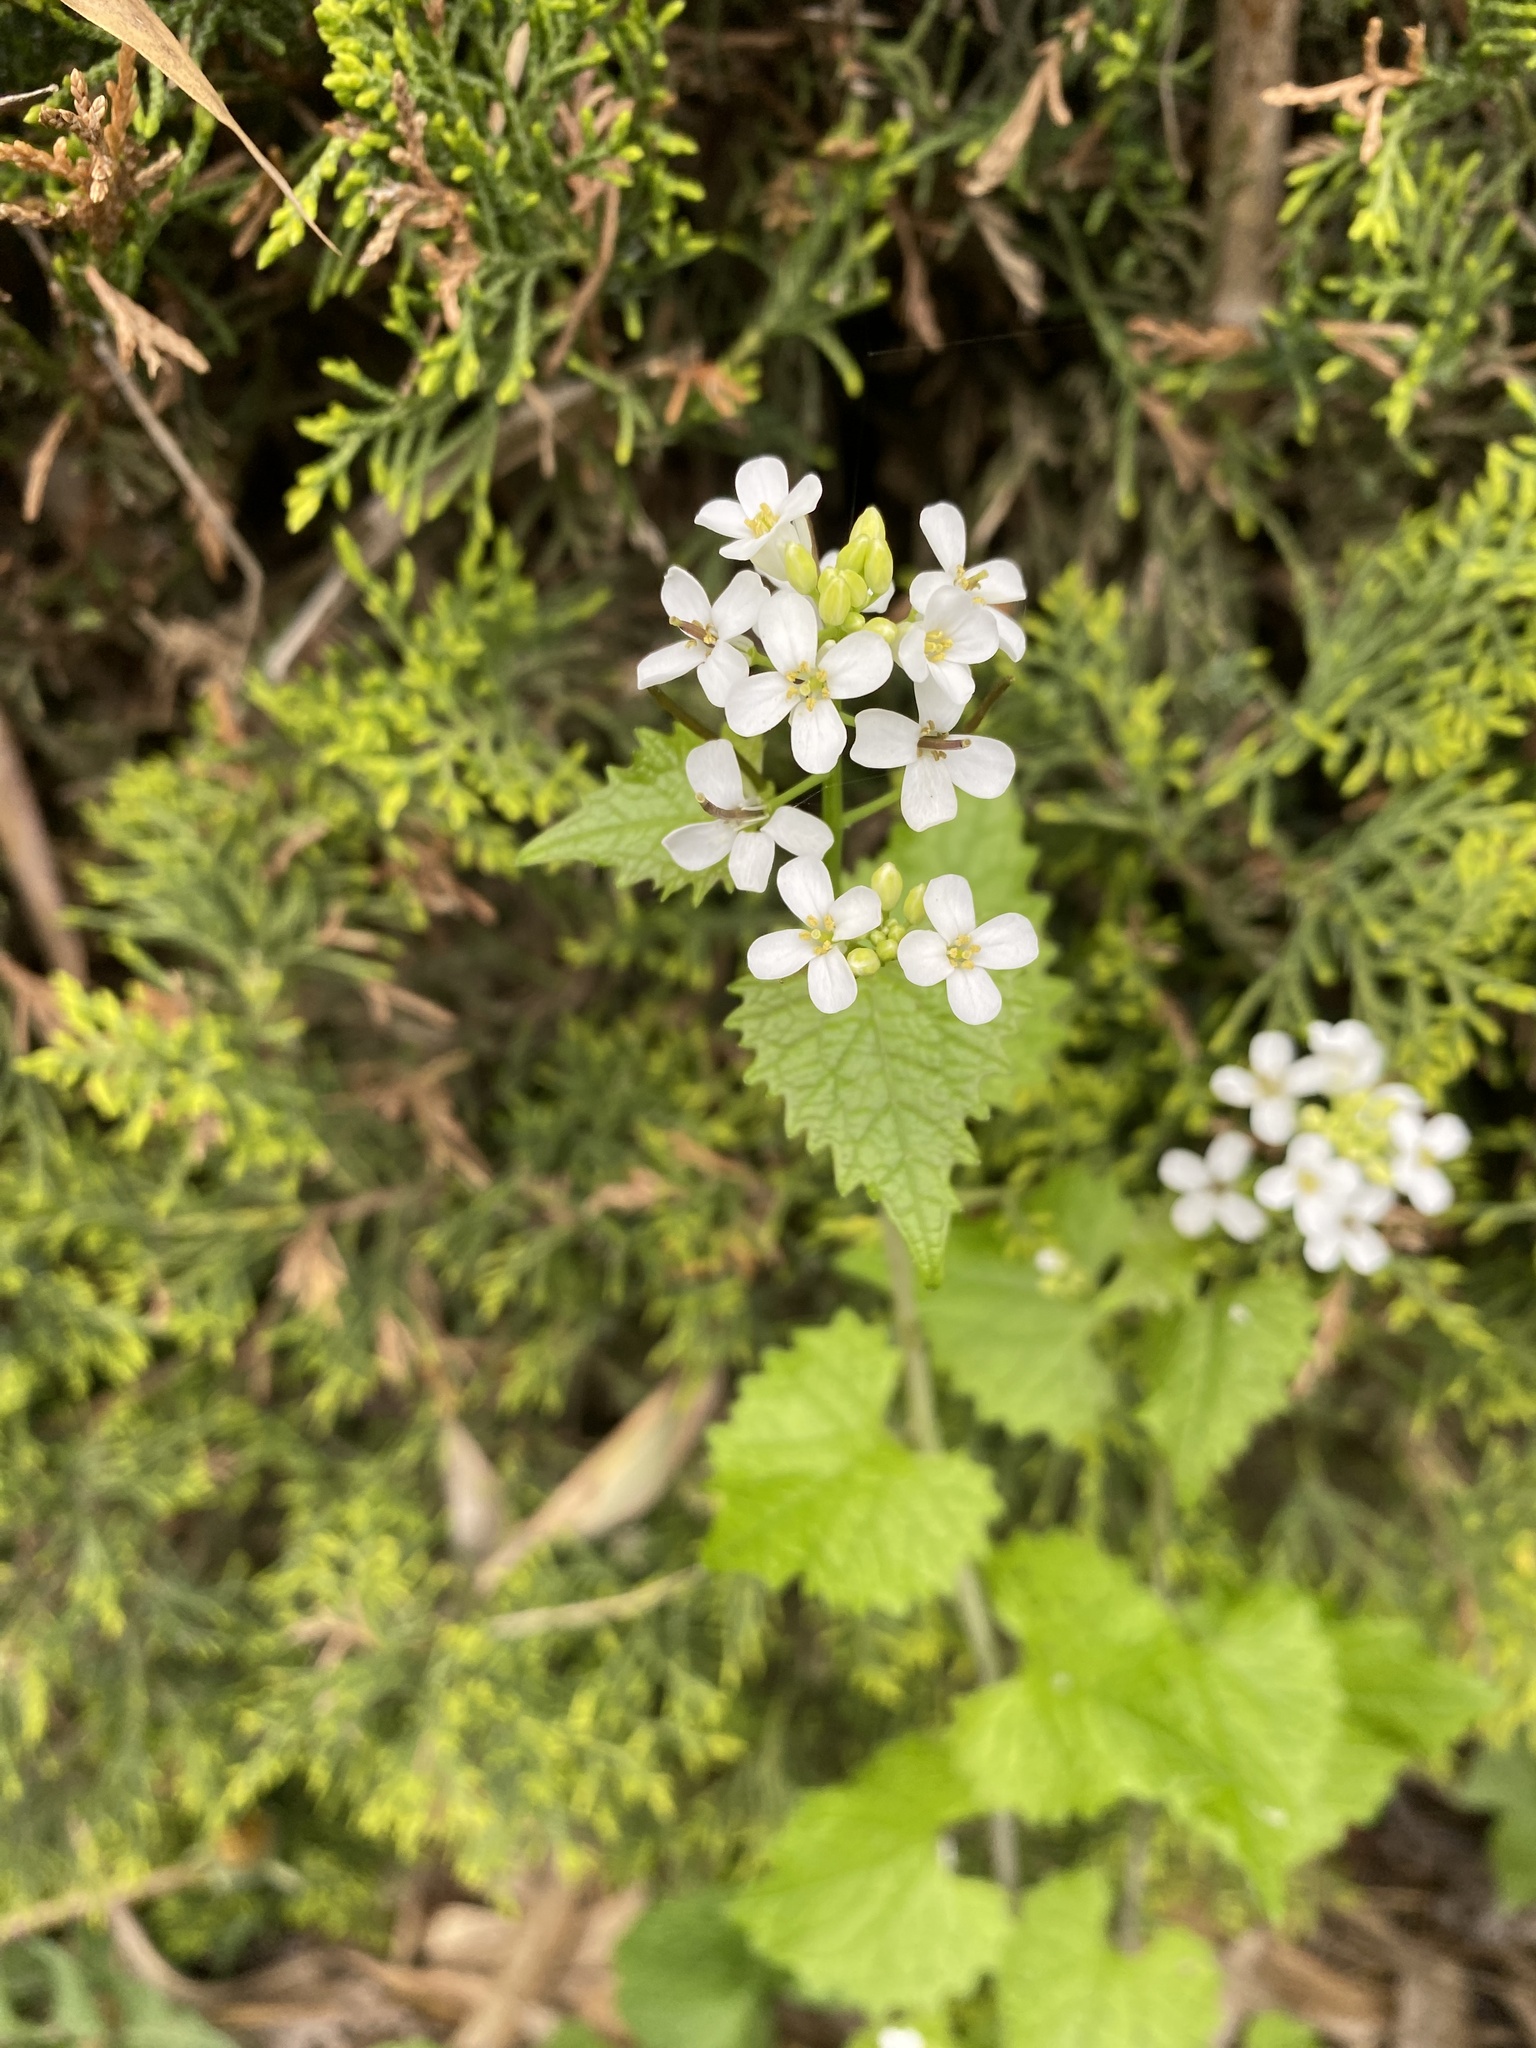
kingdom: Plantae
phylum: Tracheophyta
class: Magnoliopsida
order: Brassicales
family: Brassicaceae
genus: Alliaria
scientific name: Alliaria petiolata
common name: Garlic mustard
